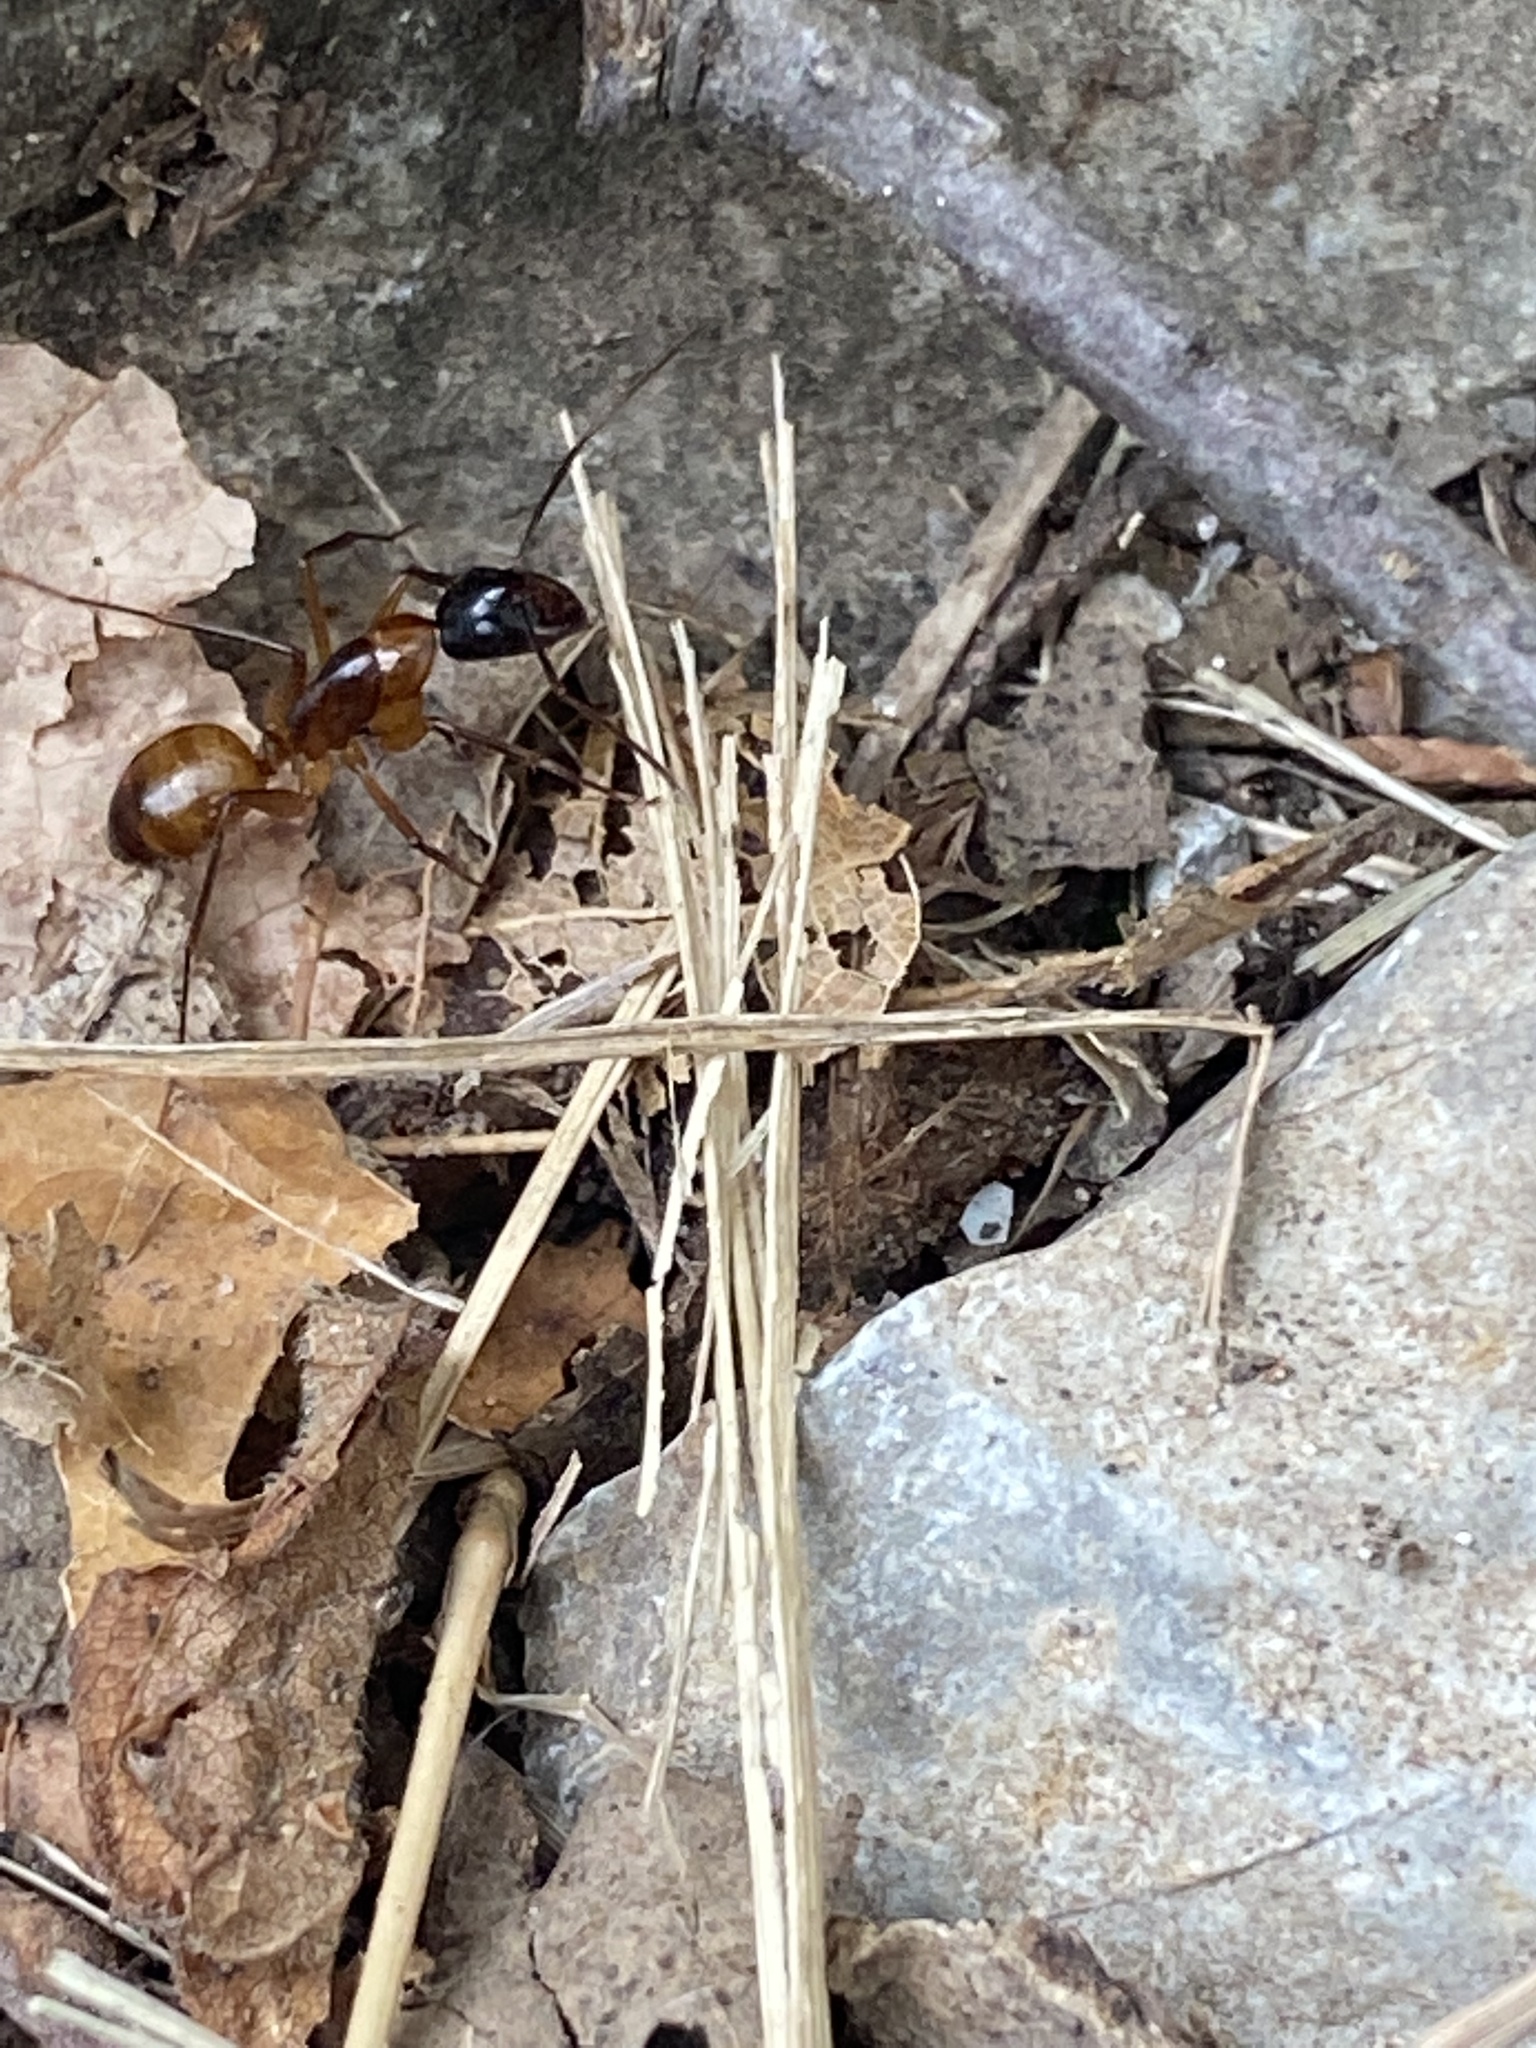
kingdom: Animalia
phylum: Arthropoda
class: Insecta
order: Hymenoptera
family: Formicidae
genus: Camponotus
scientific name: Camponotus americanus
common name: American carpenter ant
